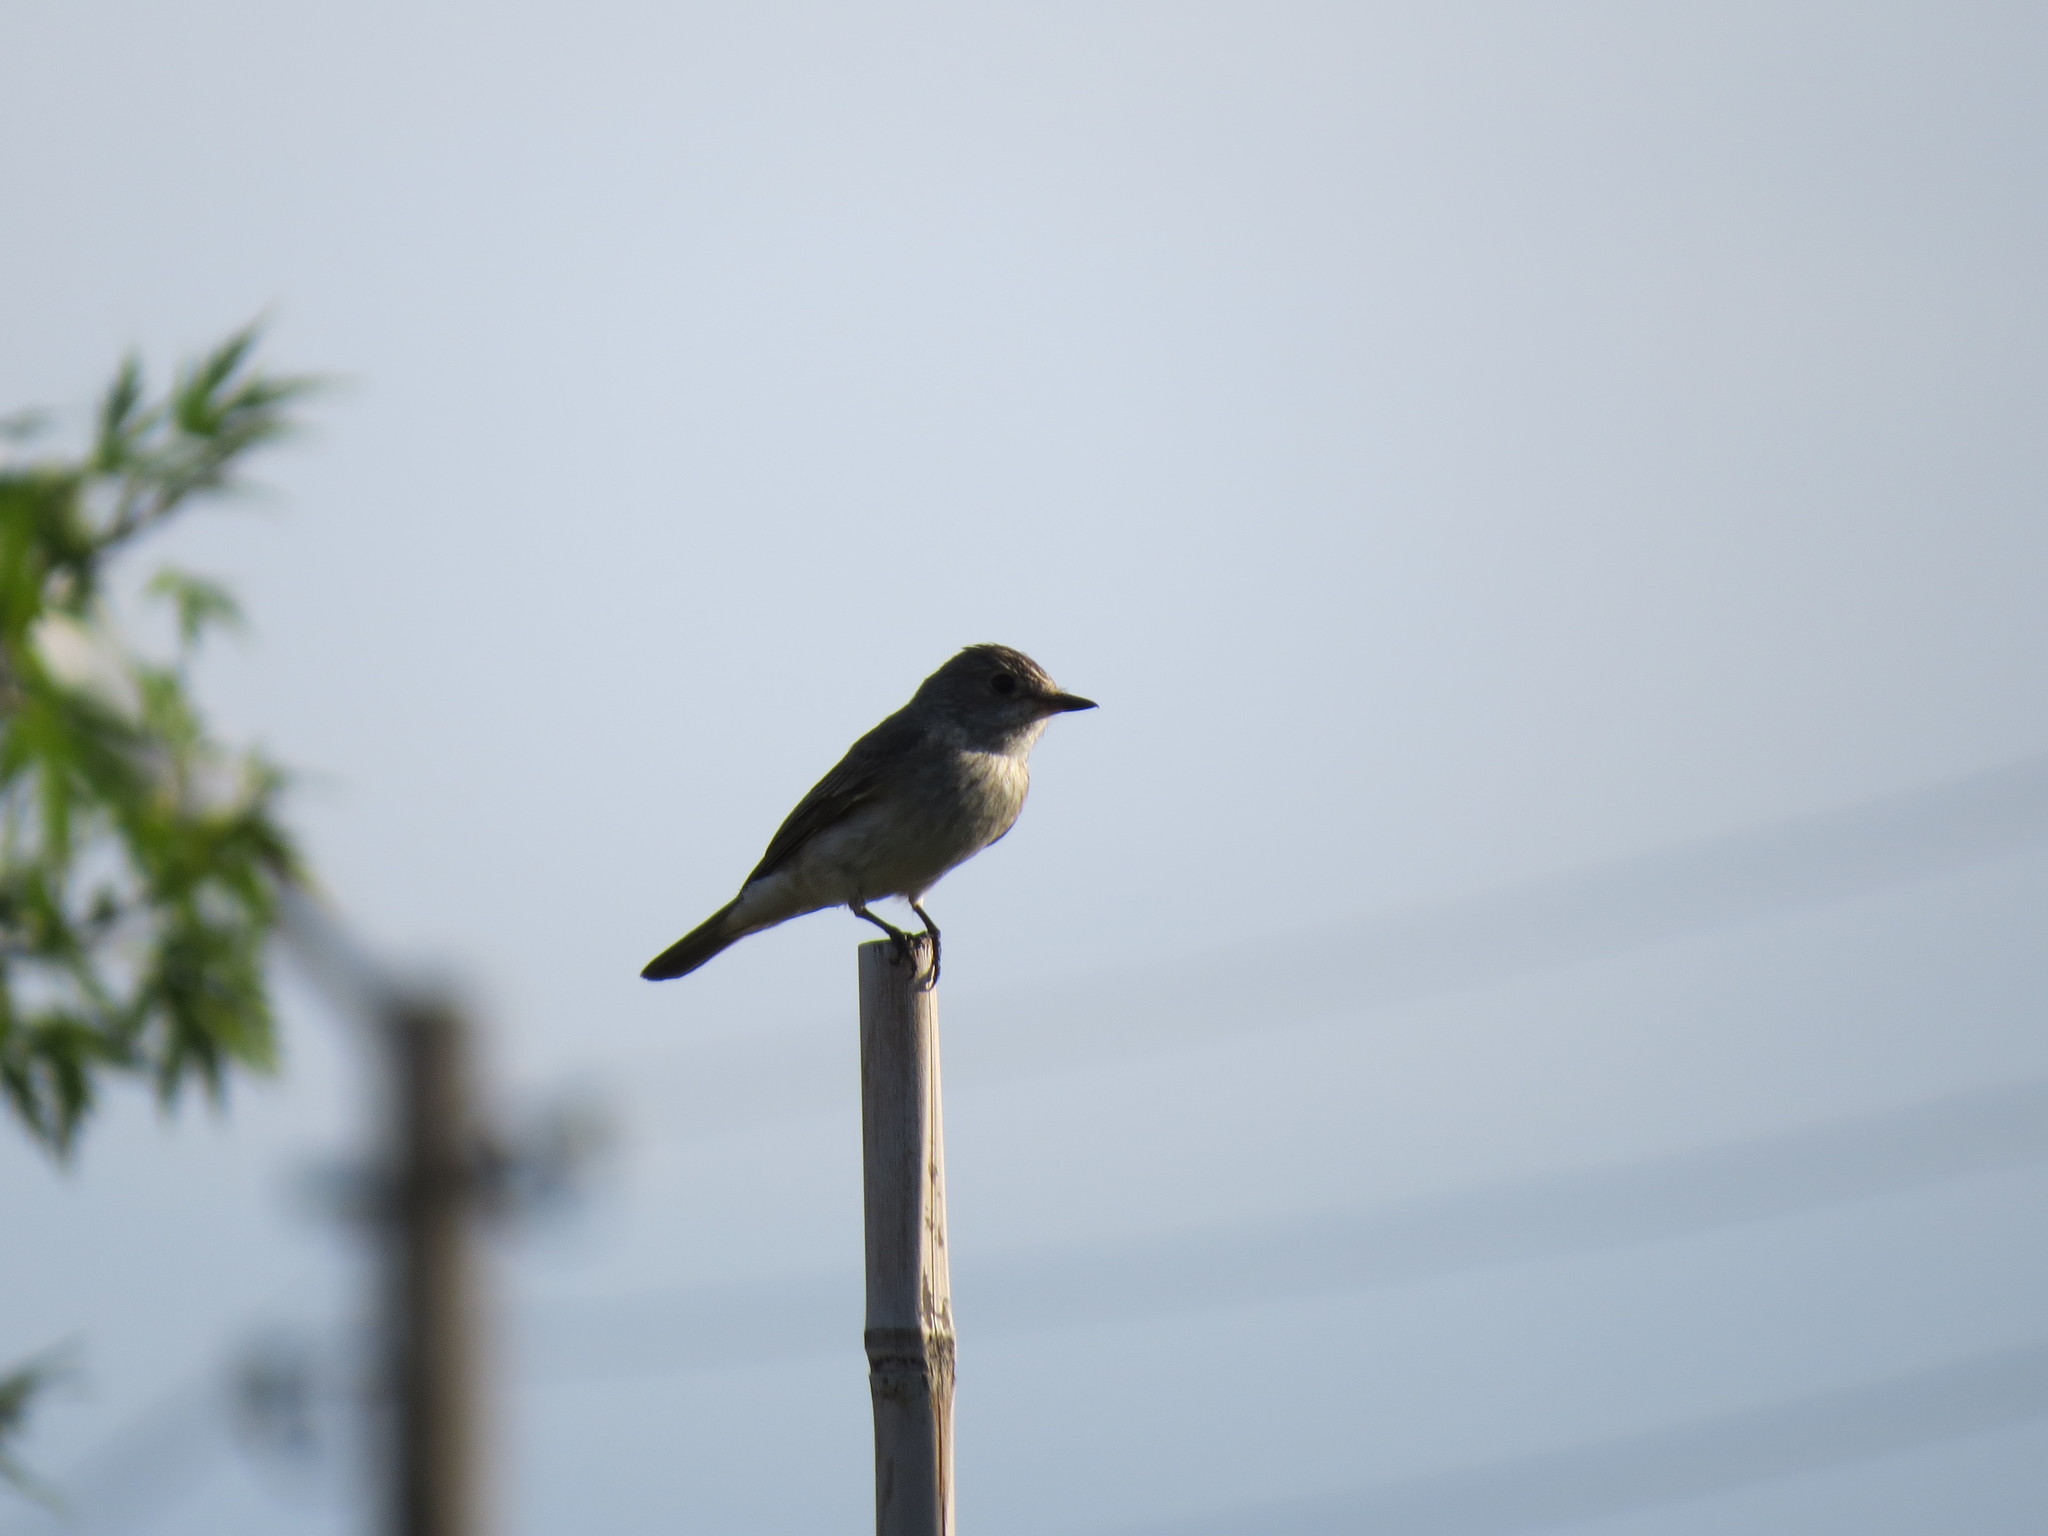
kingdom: Animalia
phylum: Chordata
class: Aves
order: Passeriformes
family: Muscicapidae
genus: Muscicapa
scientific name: Muscicapa striata
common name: Spotted flycatcher
